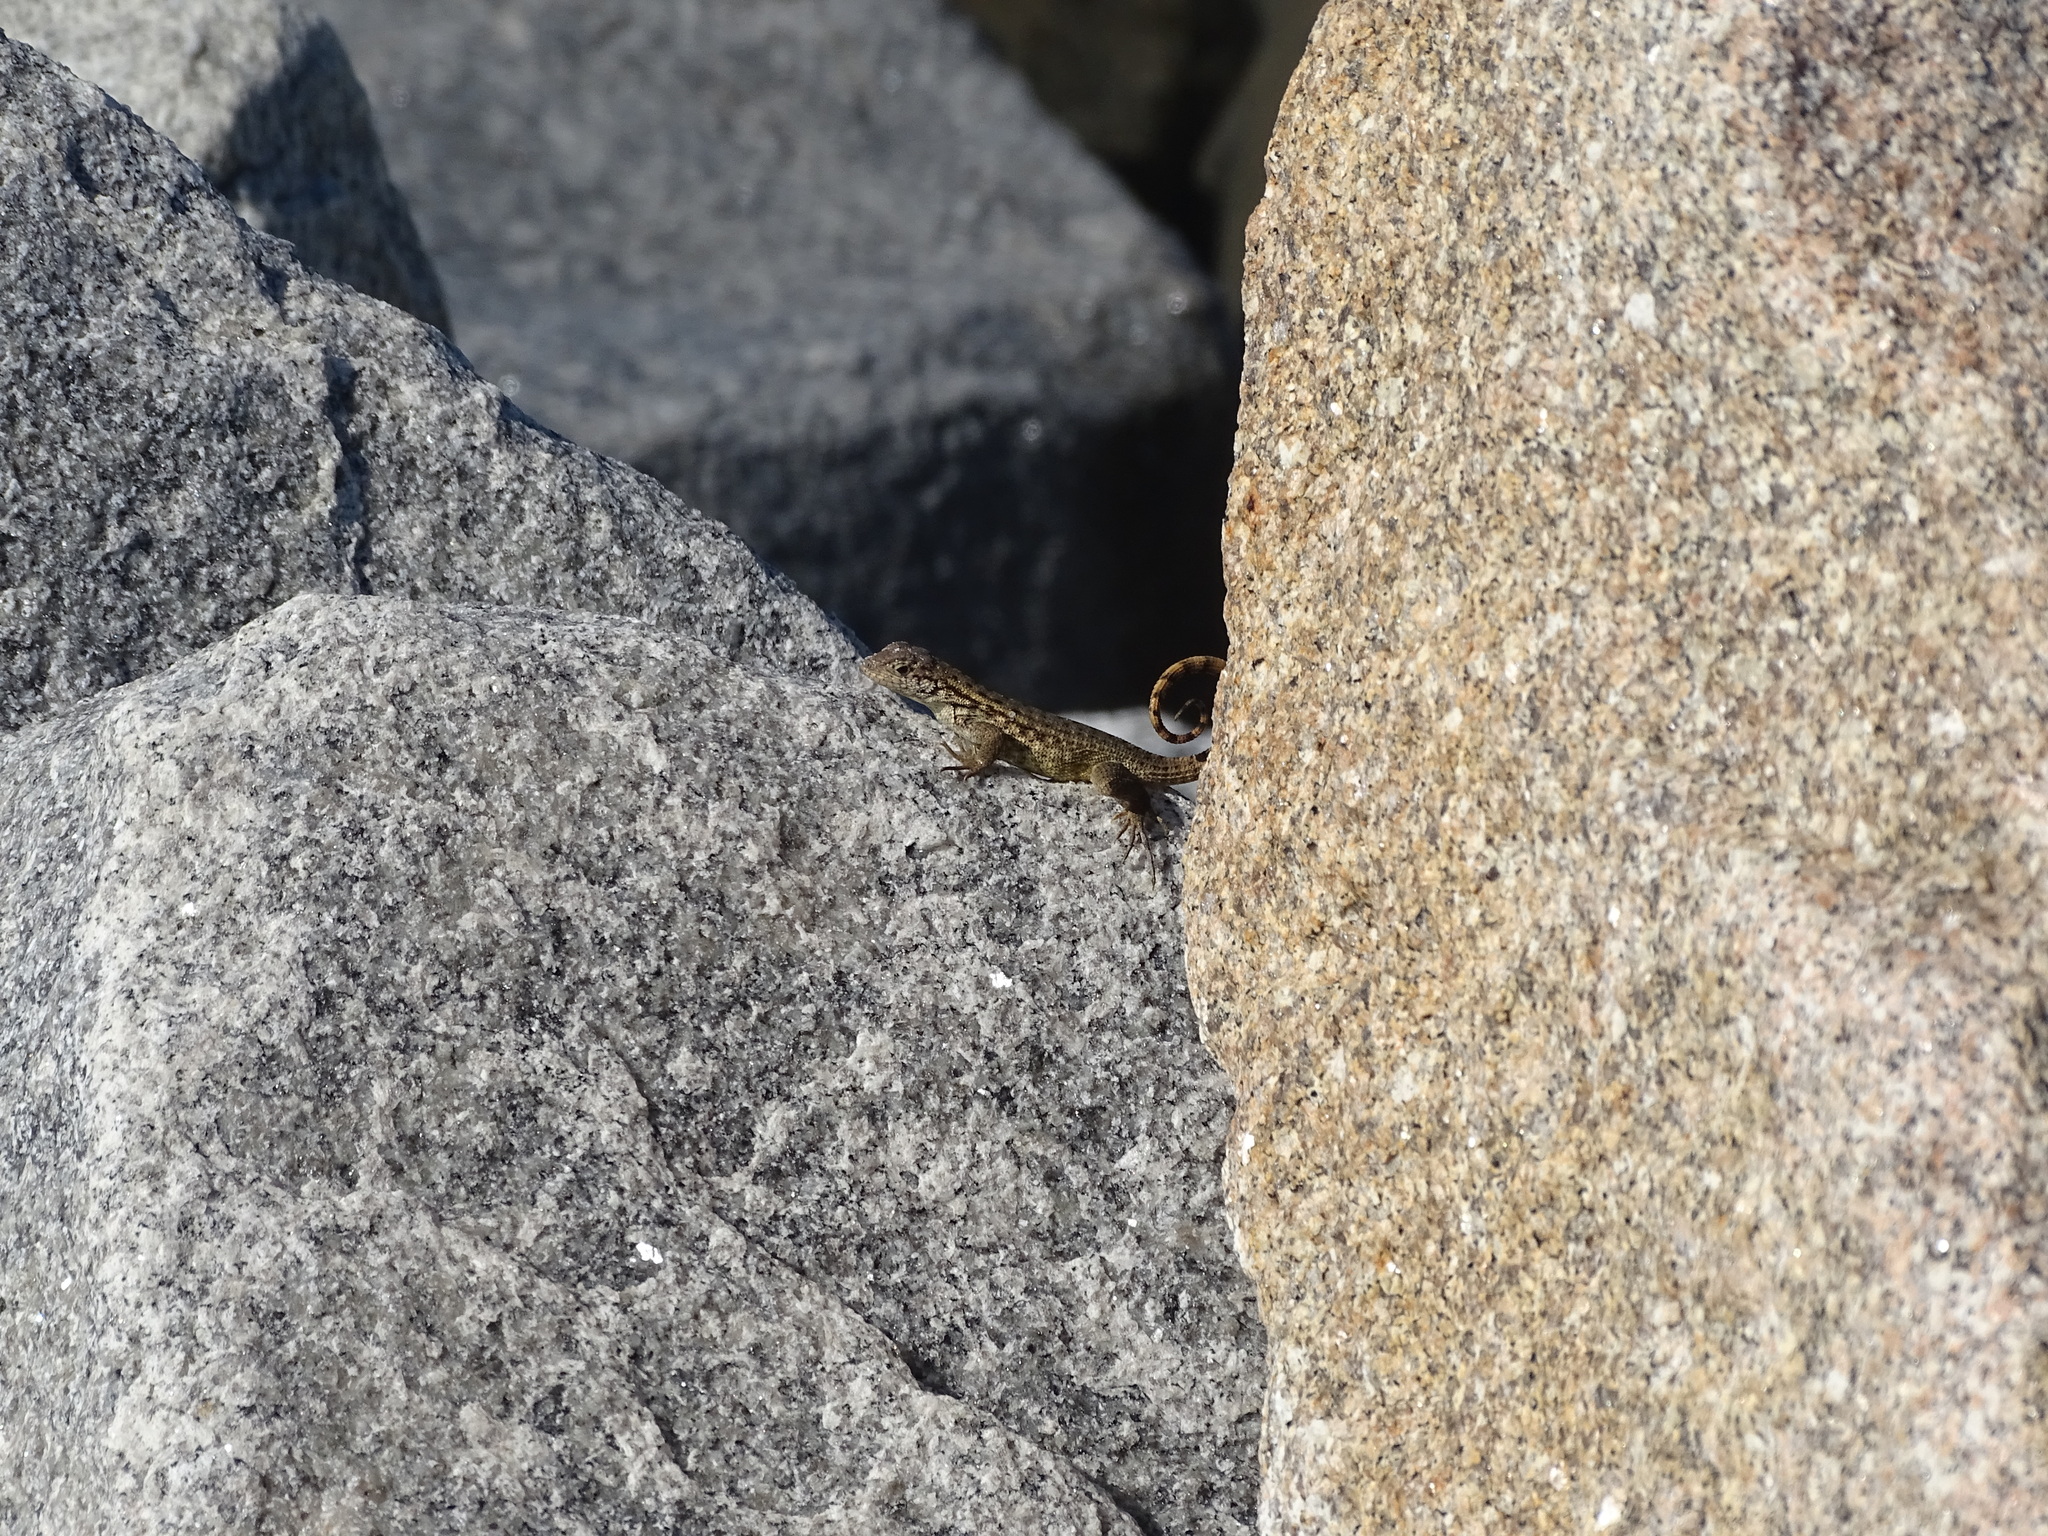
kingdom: Animalia
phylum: Chordata
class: Squamata
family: Leiocephalidae
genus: Leiocephalus
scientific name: Leiocephalus carinatus
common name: Northern curly-tailed lizard
